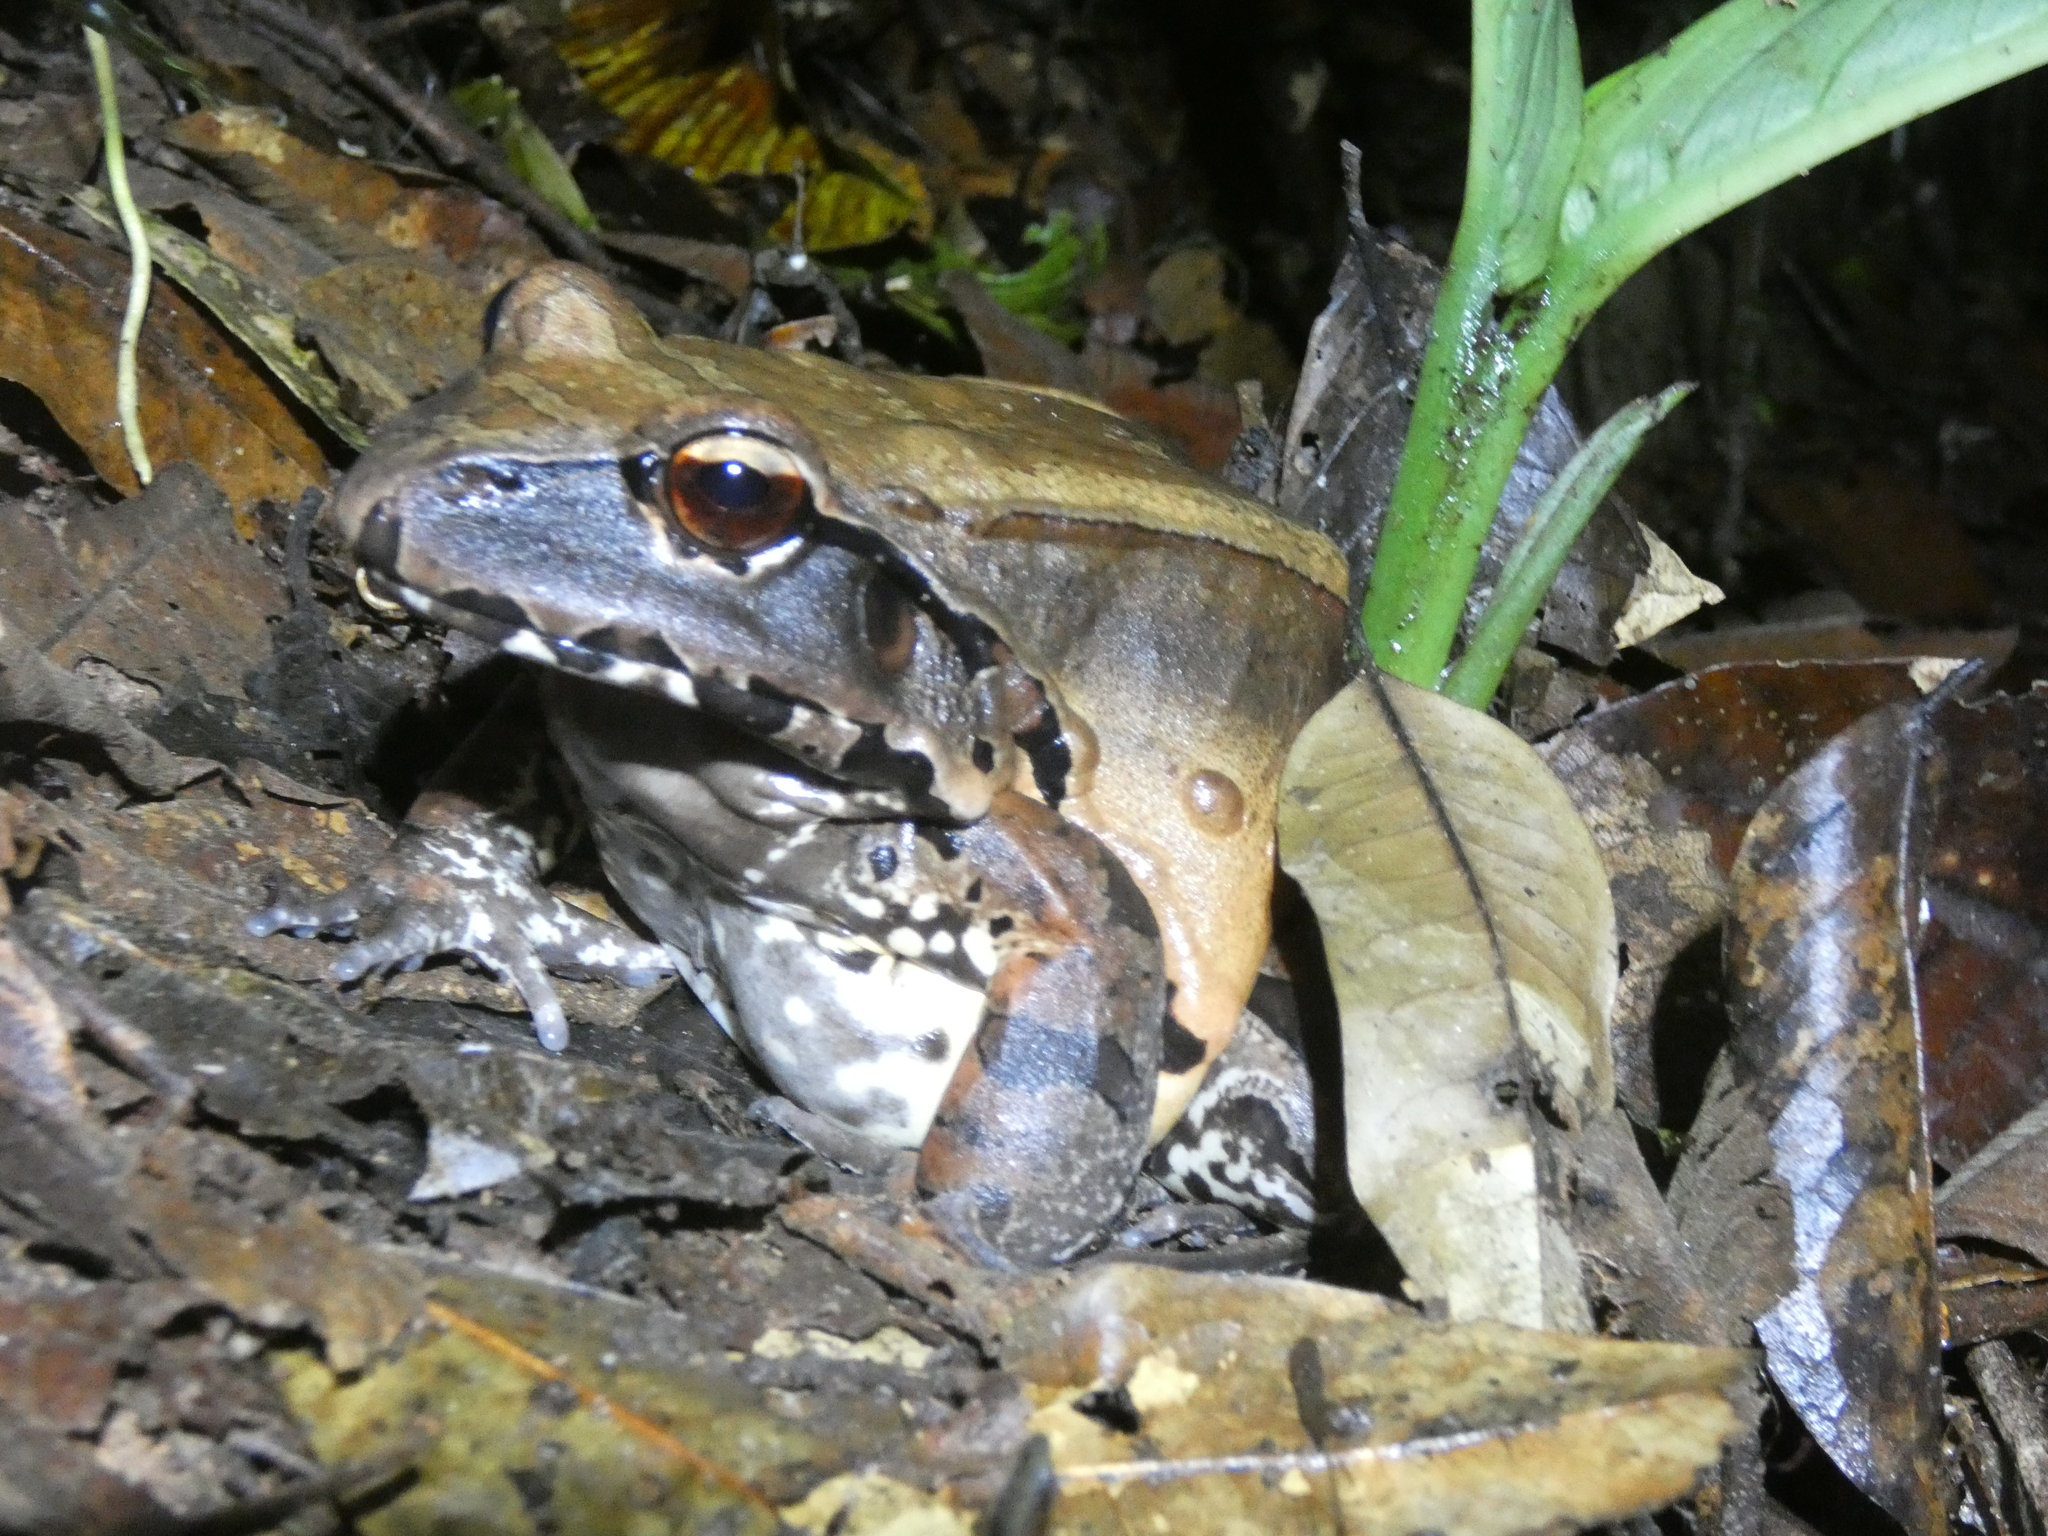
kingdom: Animalia
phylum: Chordata
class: Amphibia
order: Anura
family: Leptodactylidae
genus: Leptodactylus
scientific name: Leptodactylus pentadactylus
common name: Smoky jungle frog
